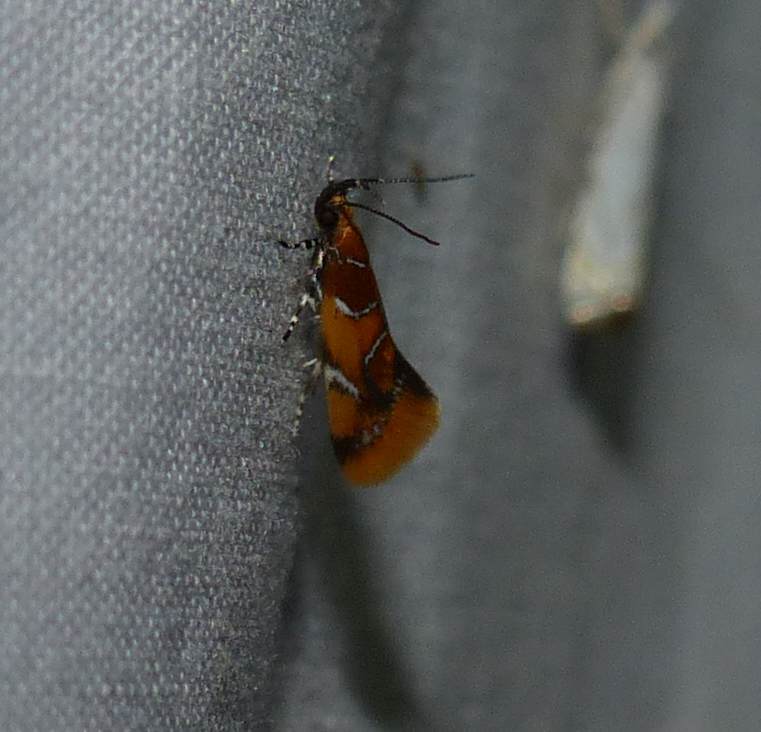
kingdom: Animalia
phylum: Arthropoda
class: Insecta
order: Lepidoptera
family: Oecophoridae
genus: Callima
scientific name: Callima argenticinctella
